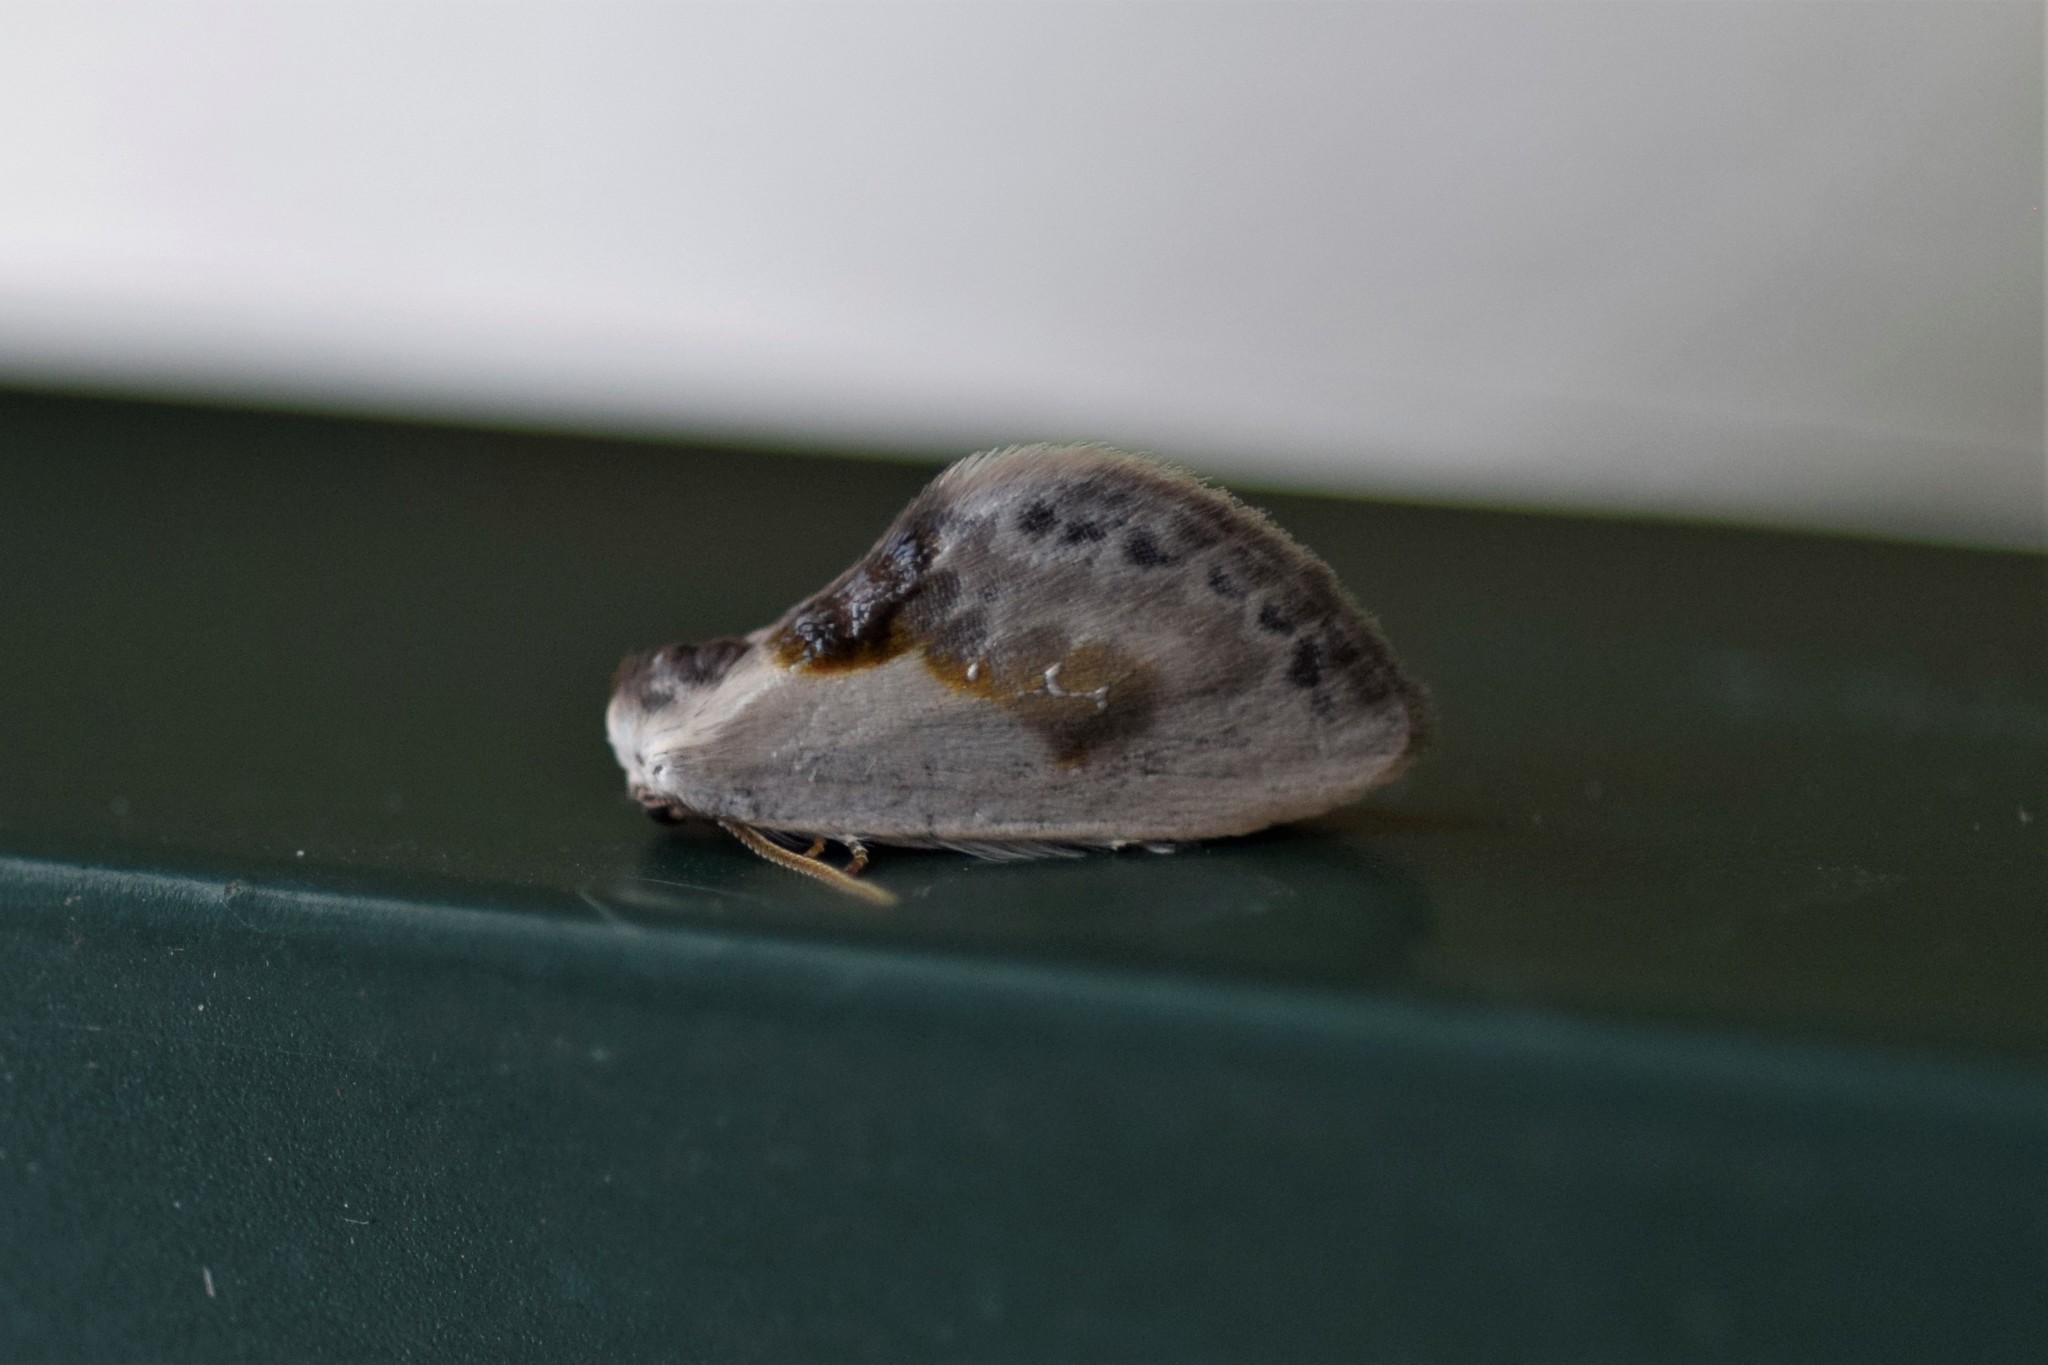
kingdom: Animalia
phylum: Arthropoda
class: Insecta
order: Lepidoptera
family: Drepanidae
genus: Cilix
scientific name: Cilix glaucata
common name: Chinese character
